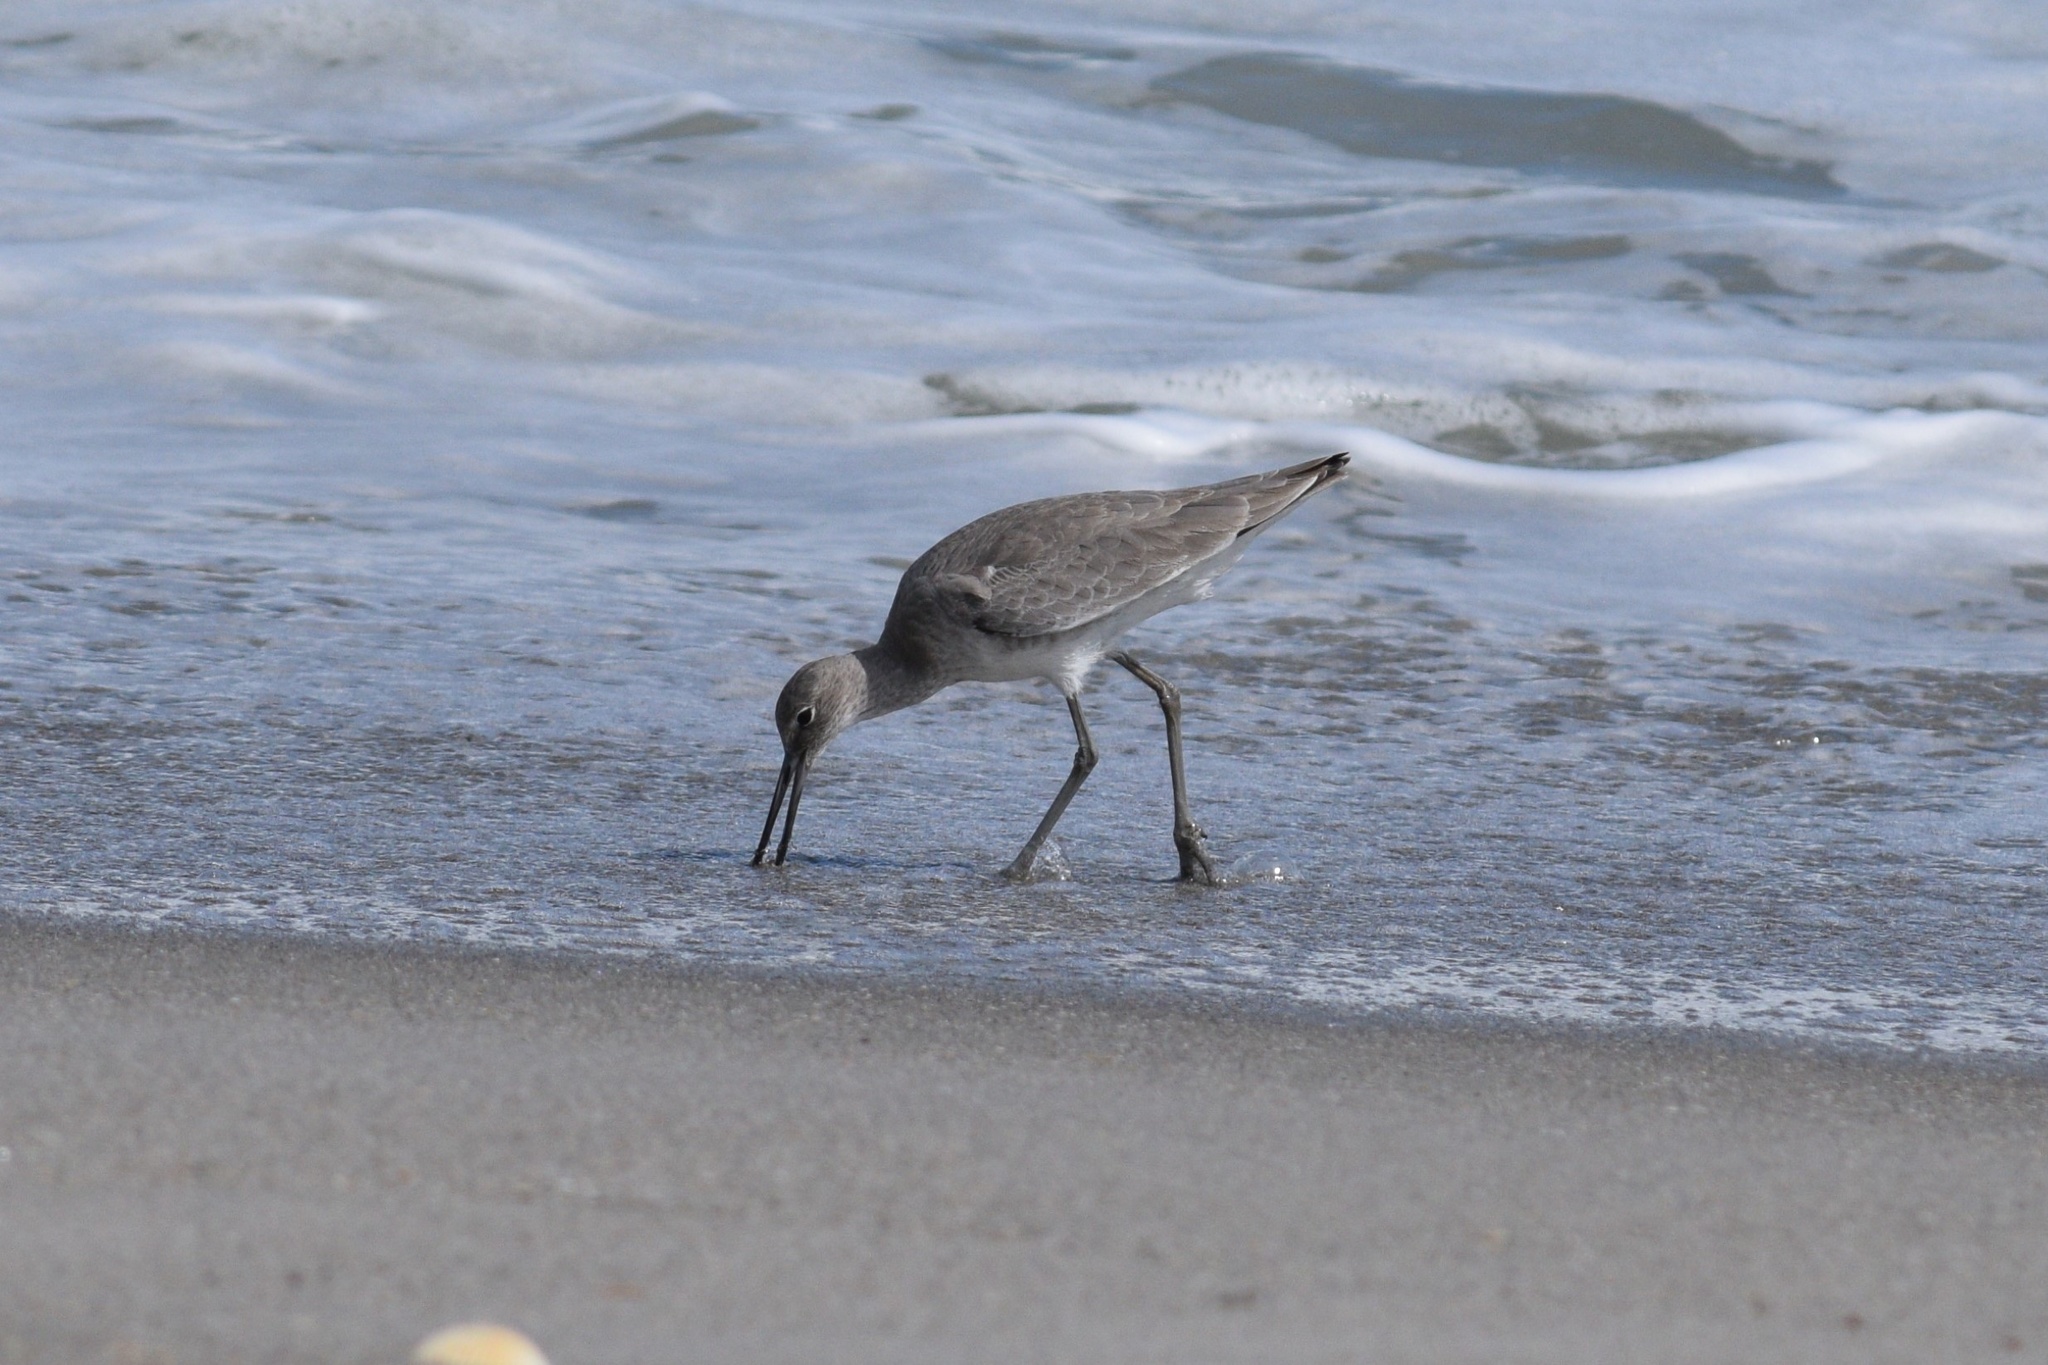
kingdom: Animalia
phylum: Chordata
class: Aves
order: Charadriiformes
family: Scolopacidae
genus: Tringa
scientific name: Tringa semipalmata
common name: Willet
